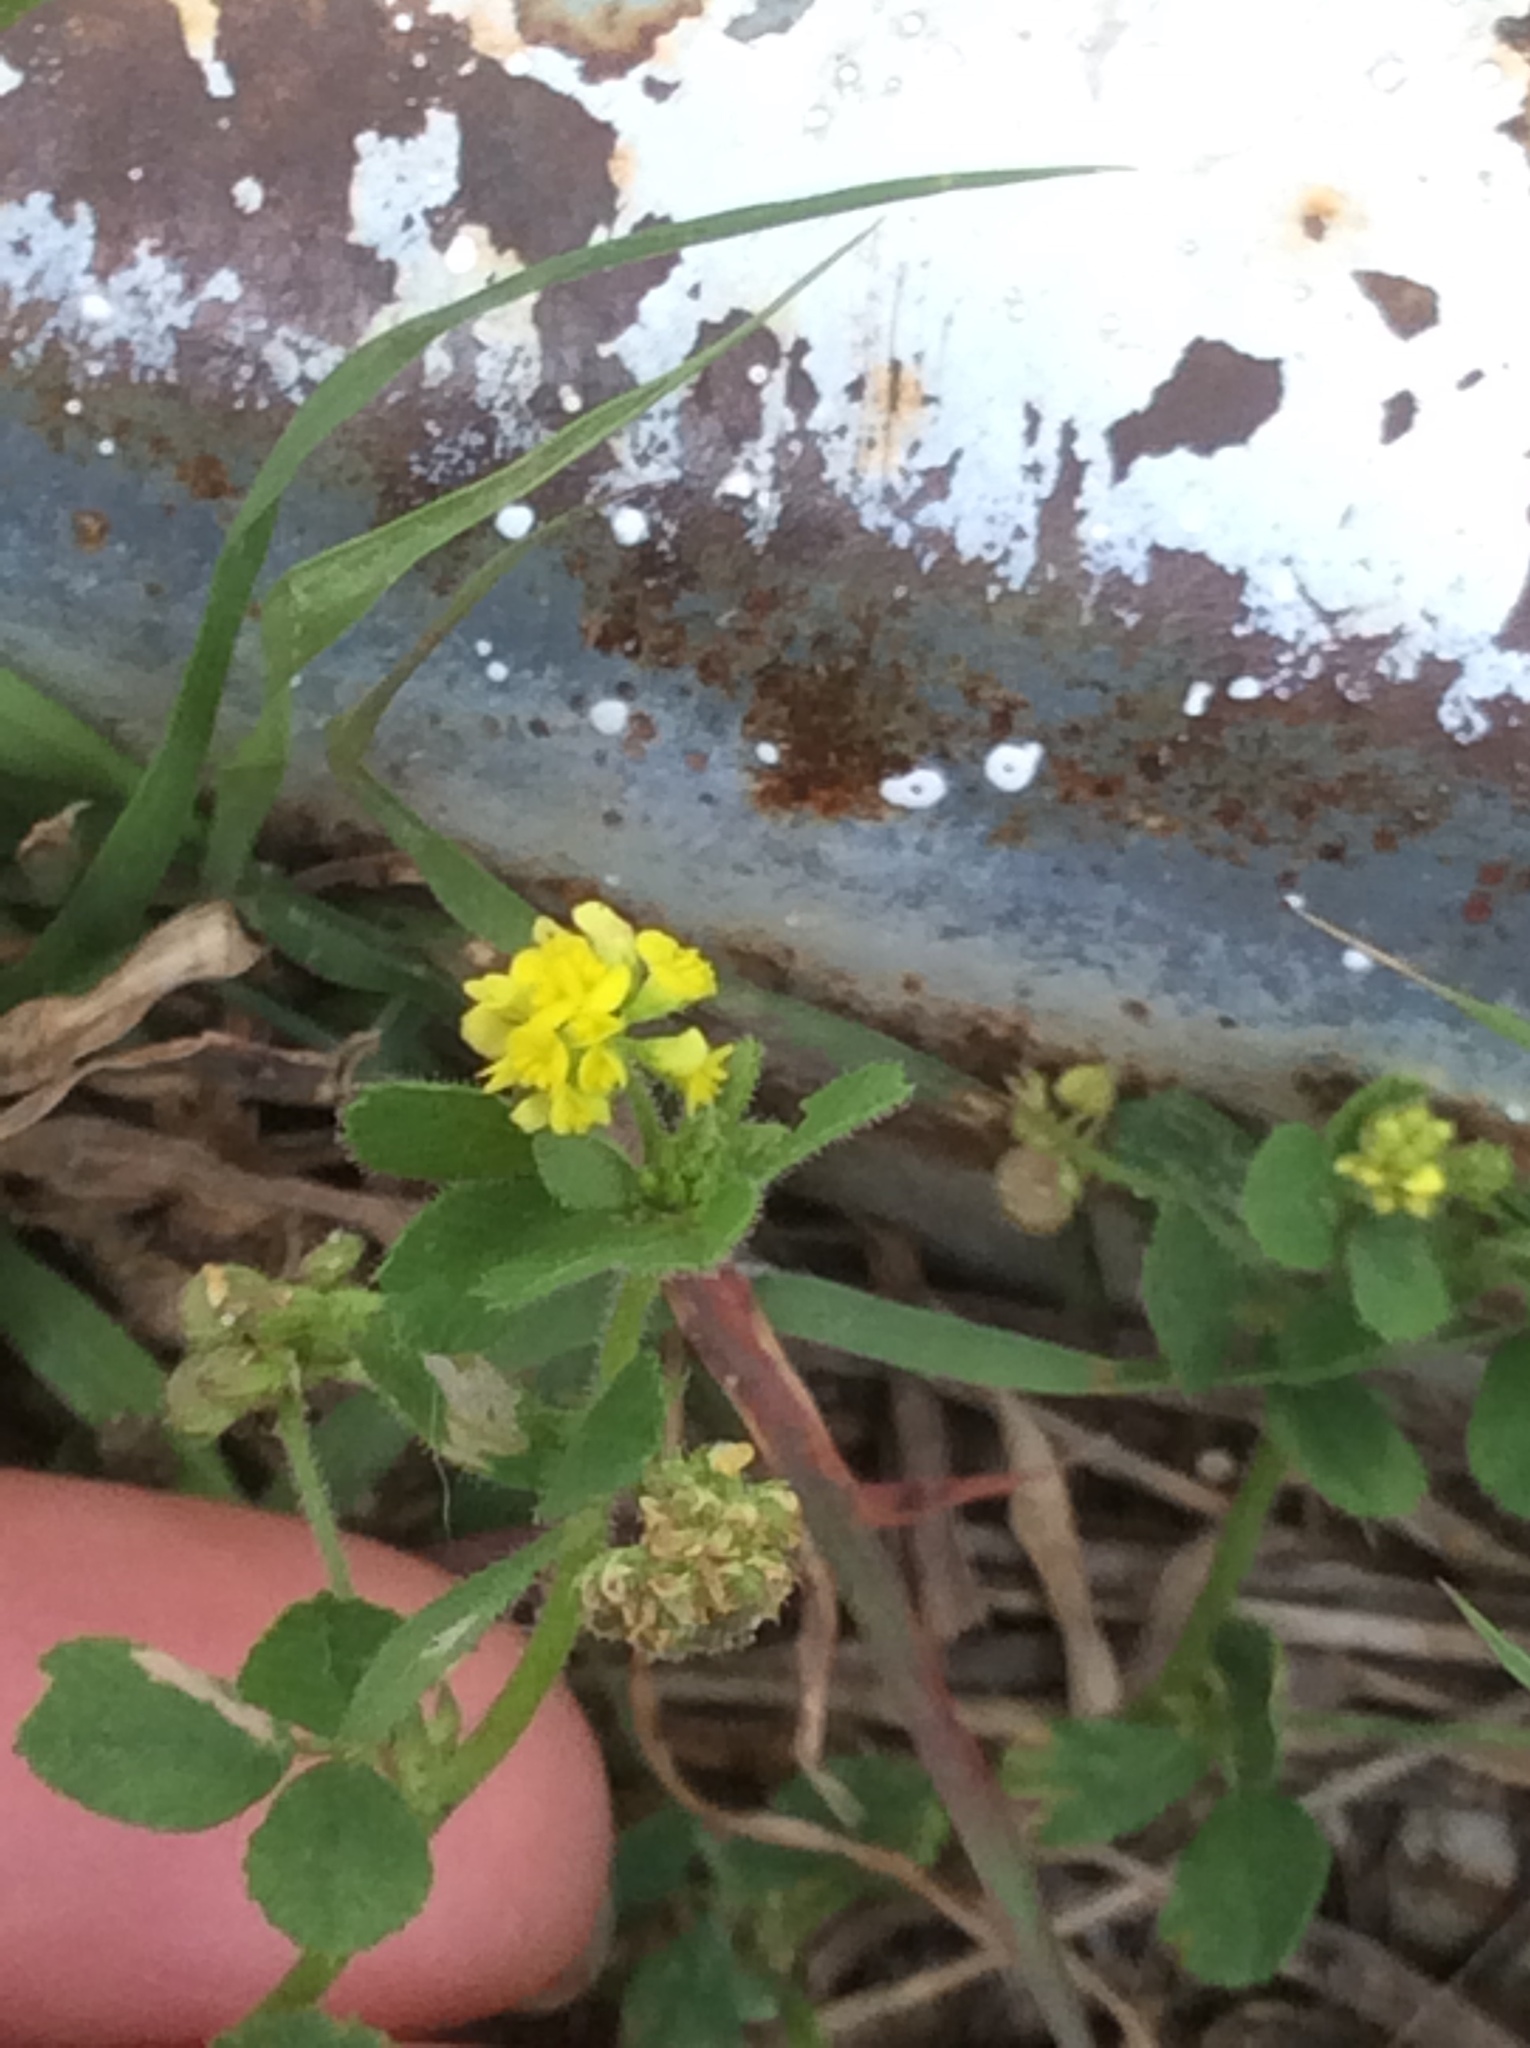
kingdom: Plantae
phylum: Tracheophyta
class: Magnoliopsida
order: Fabales
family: Fabaceae
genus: Medicago
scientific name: Medicago lupulina
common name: Black medick
